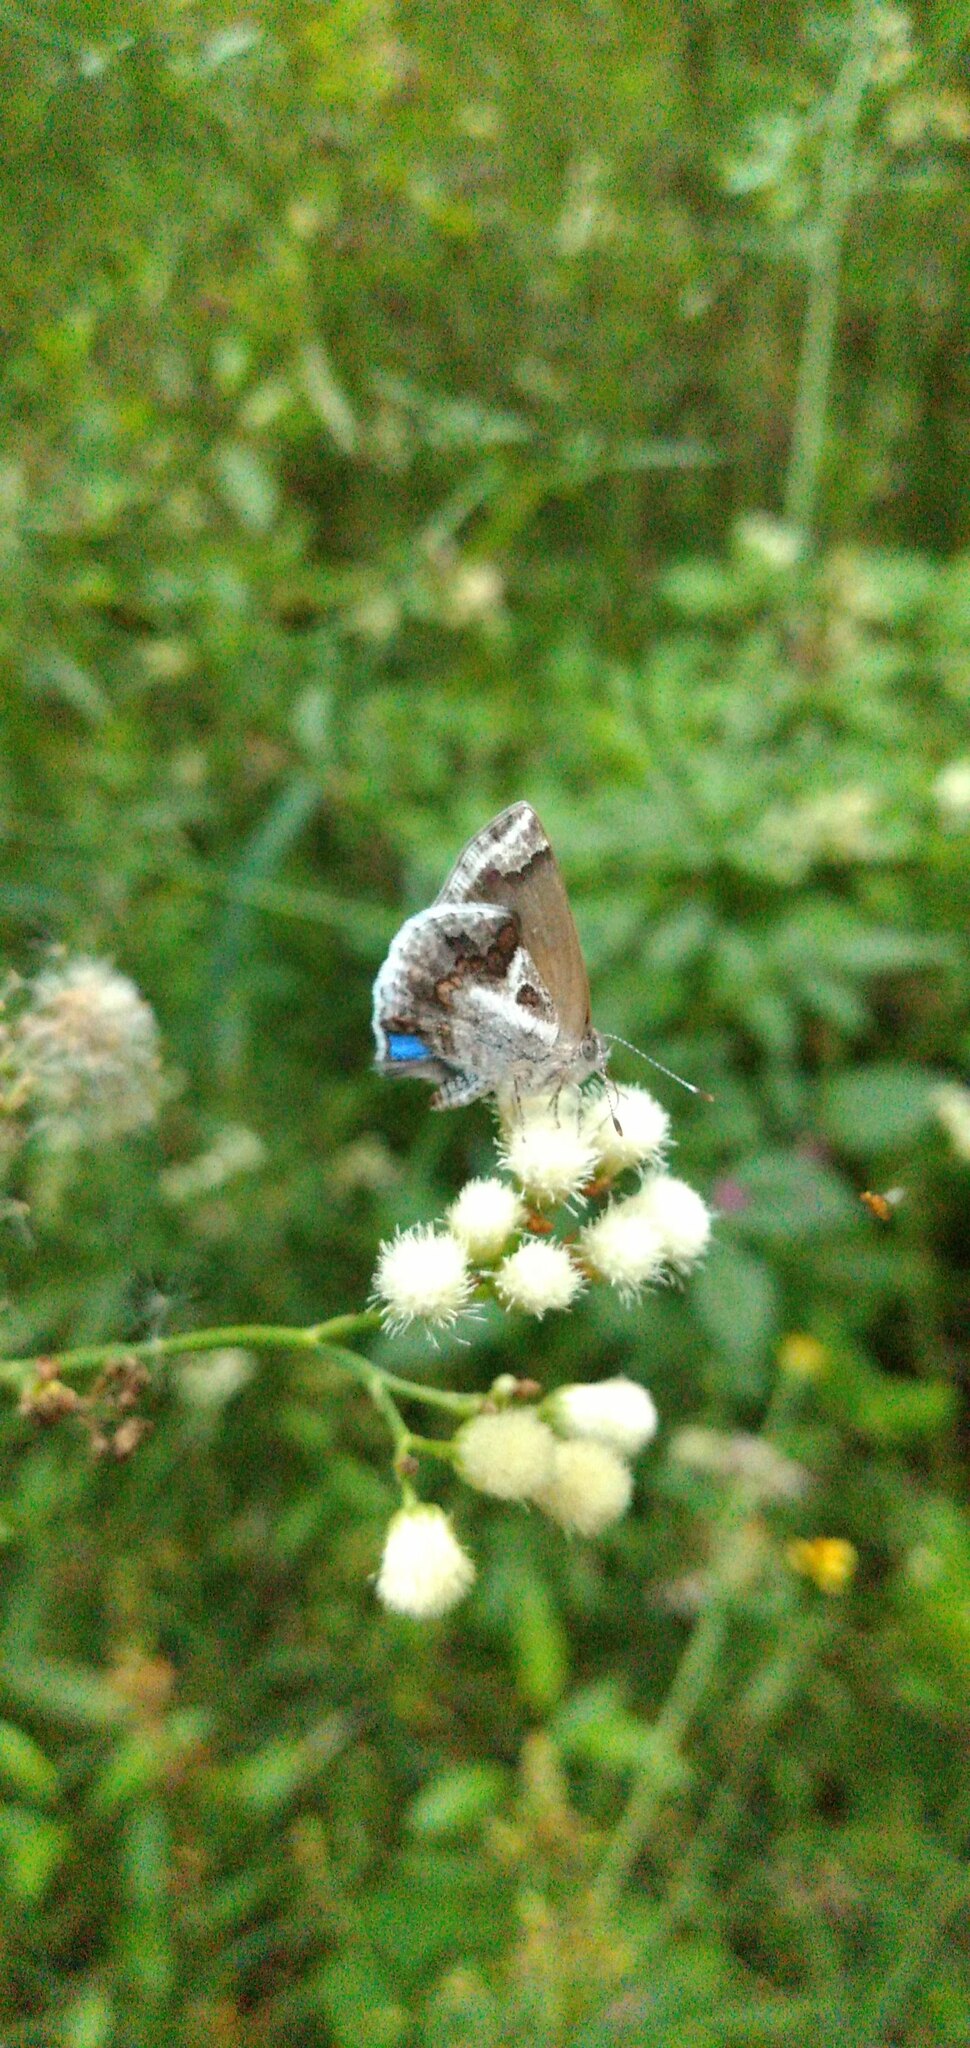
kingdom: Animalia
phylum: Arthropoda
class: Insecta
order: Lepidoptera
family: Lycaenidae
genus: Strymon
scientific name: Strymon bazochii
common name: Lantana scrub-hairstreak
